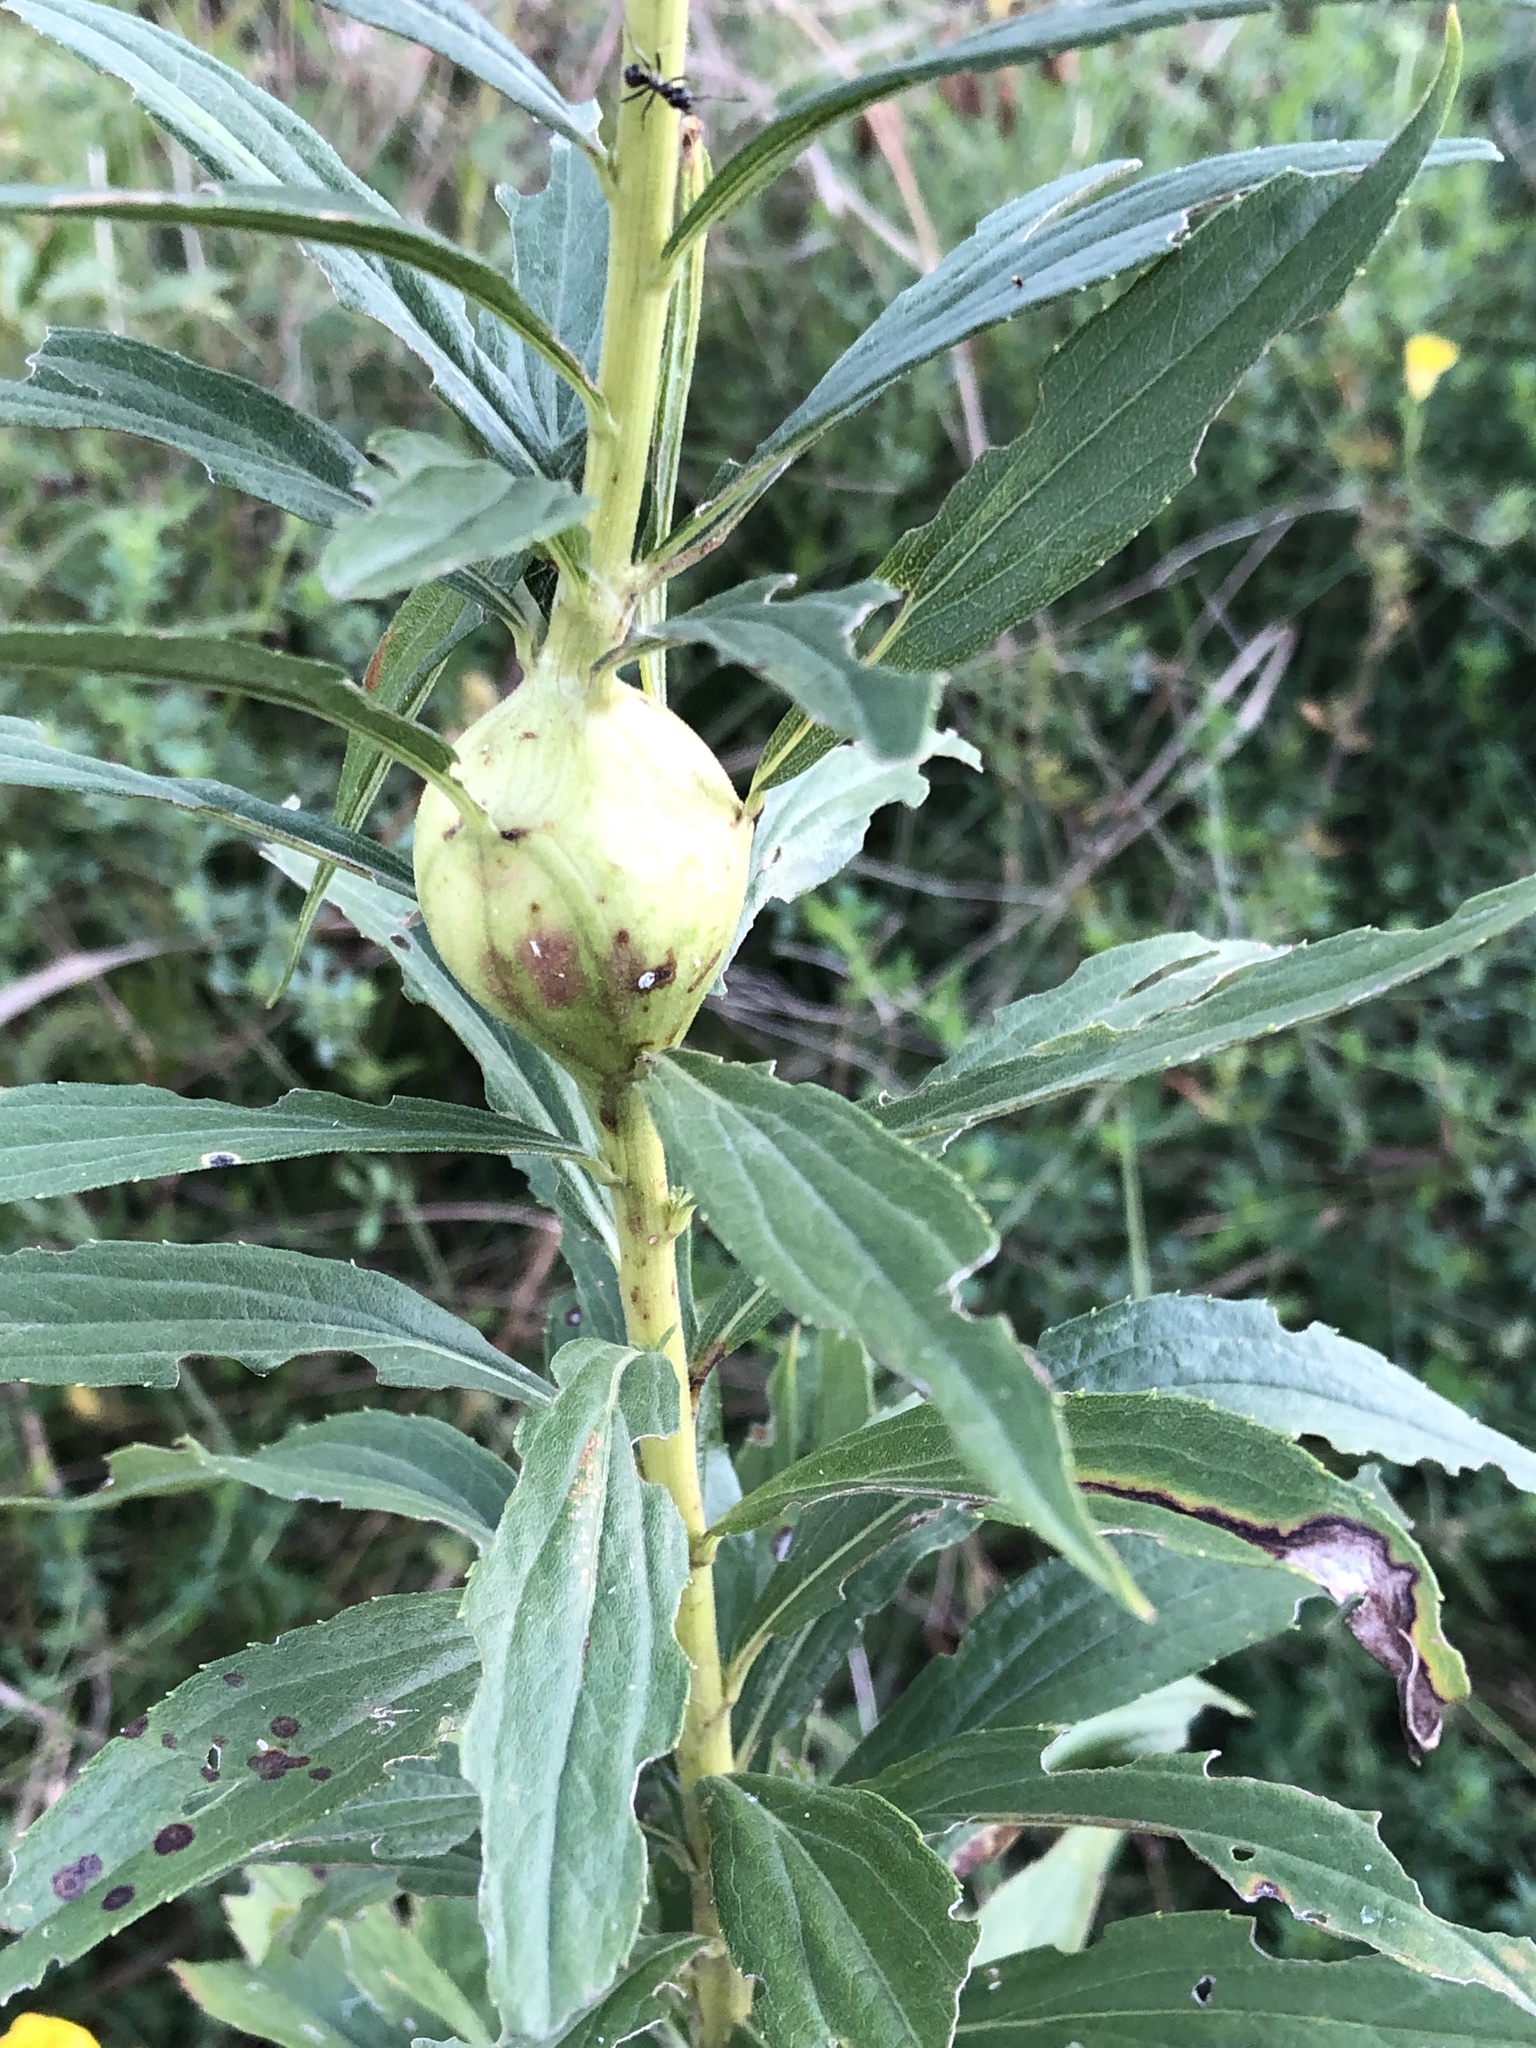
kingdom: Animalia
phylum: Arthropoda
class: Insecta
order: Diptera
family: Tephritidae
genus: Eurosta
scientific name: Eurosta solidaginis
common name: Goldenrod gall fly
